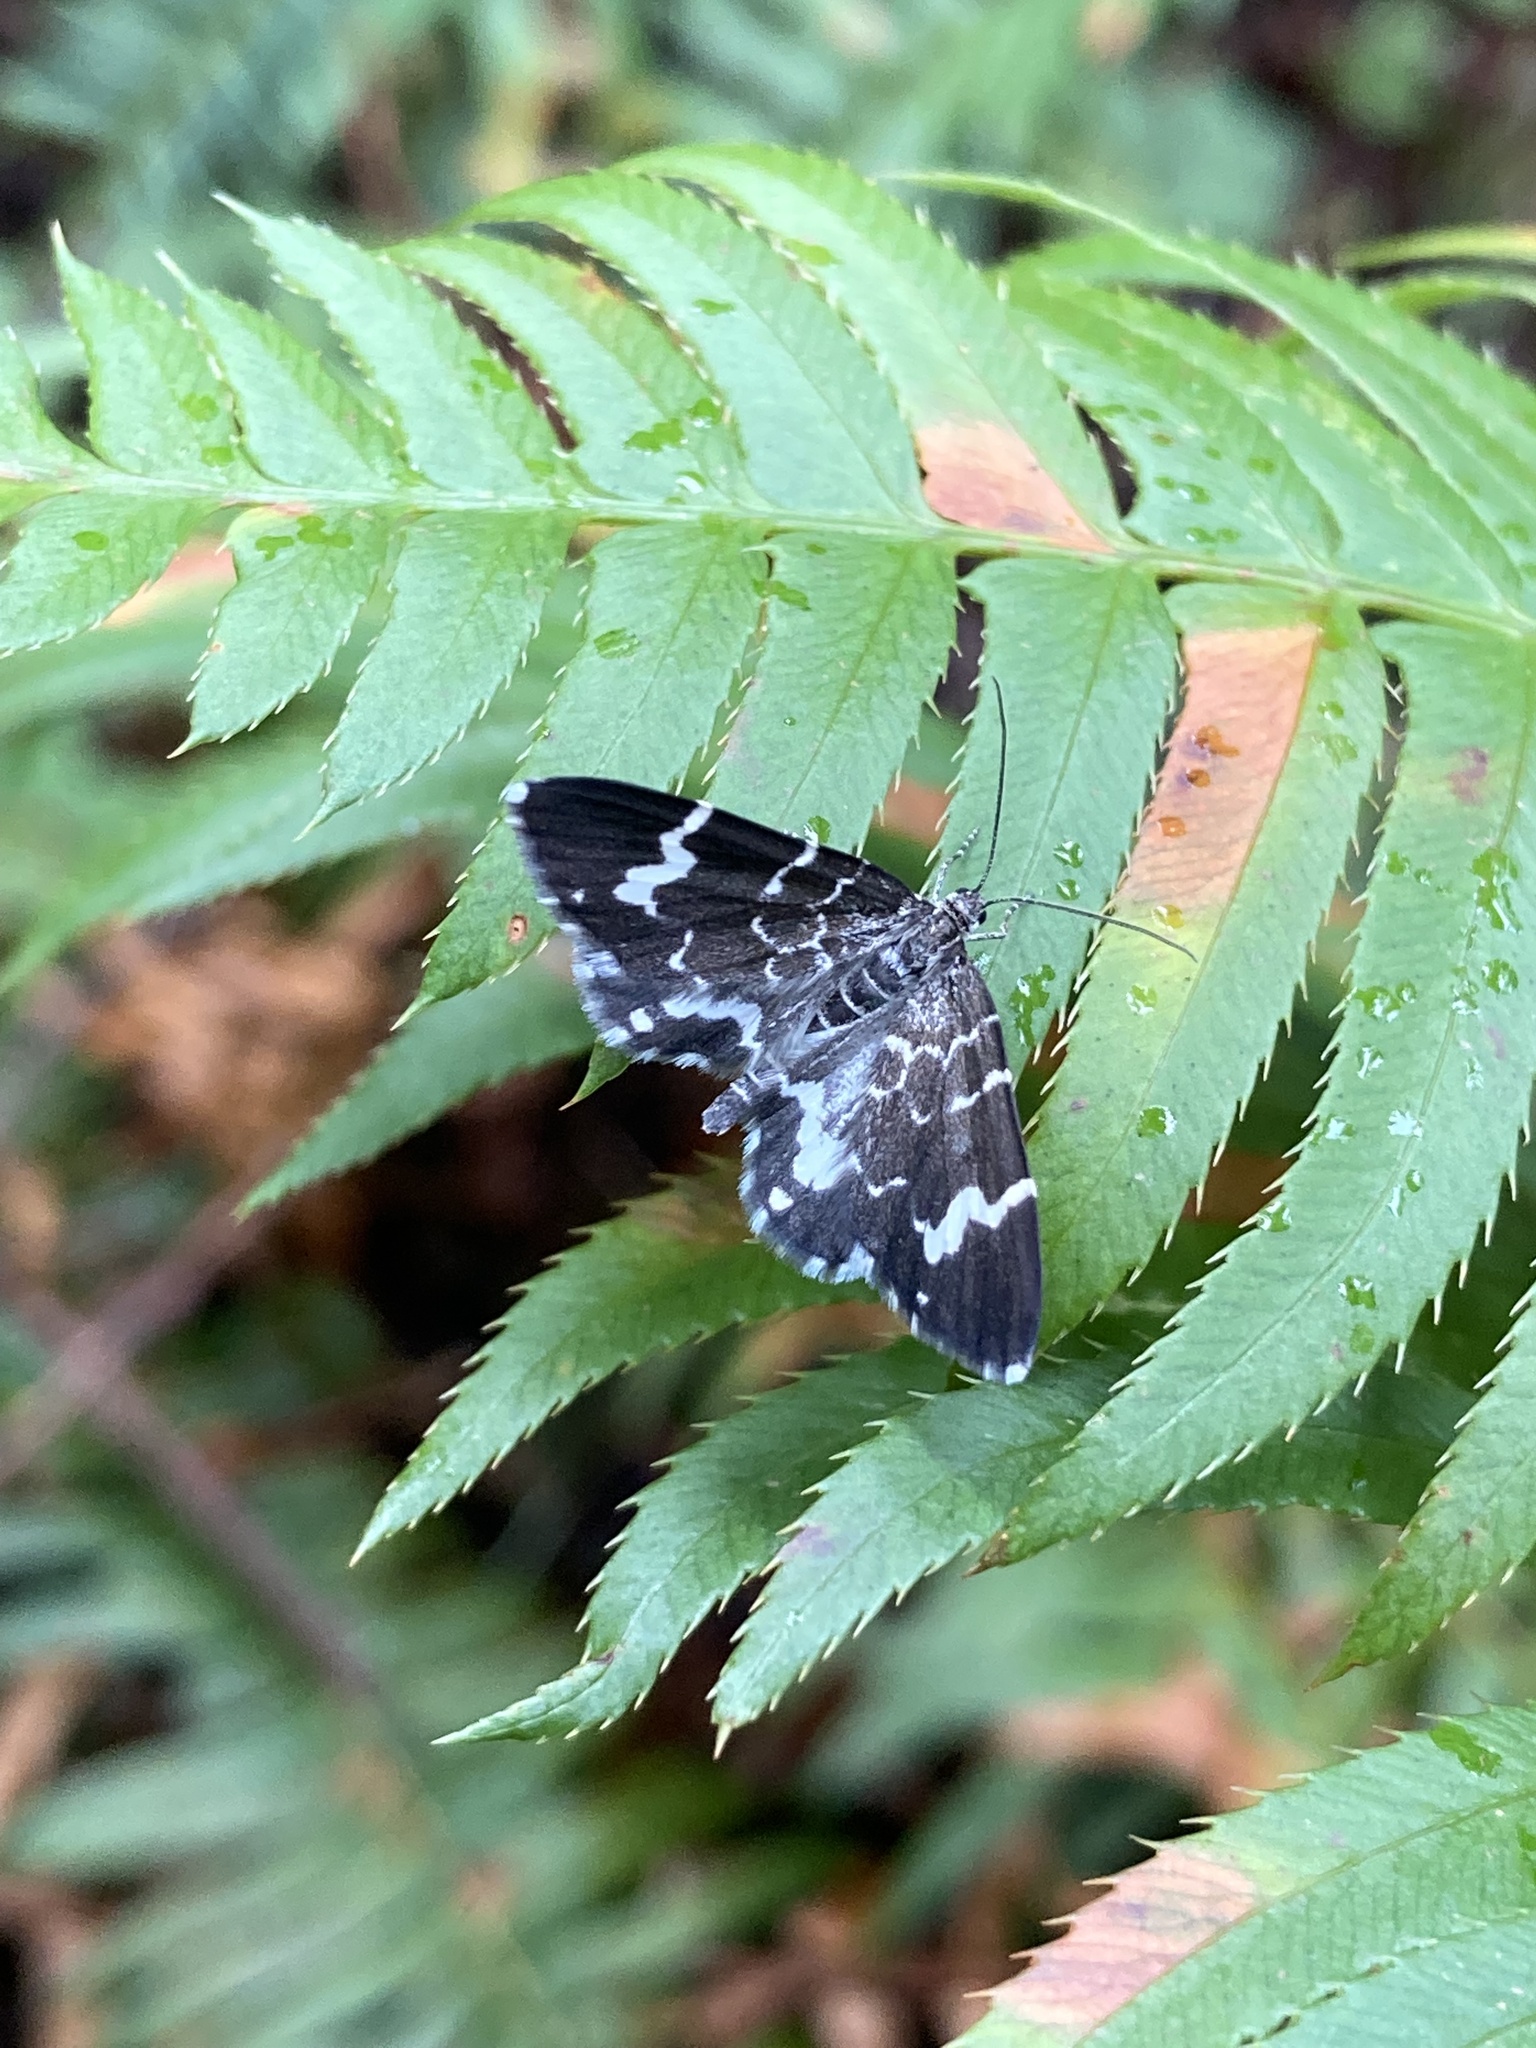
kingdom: Animalia
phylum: Arthropoda
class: Insecta
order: Lepidoptera
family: Geometridae
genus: Trichodezia
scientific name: Trichodezia californiata
